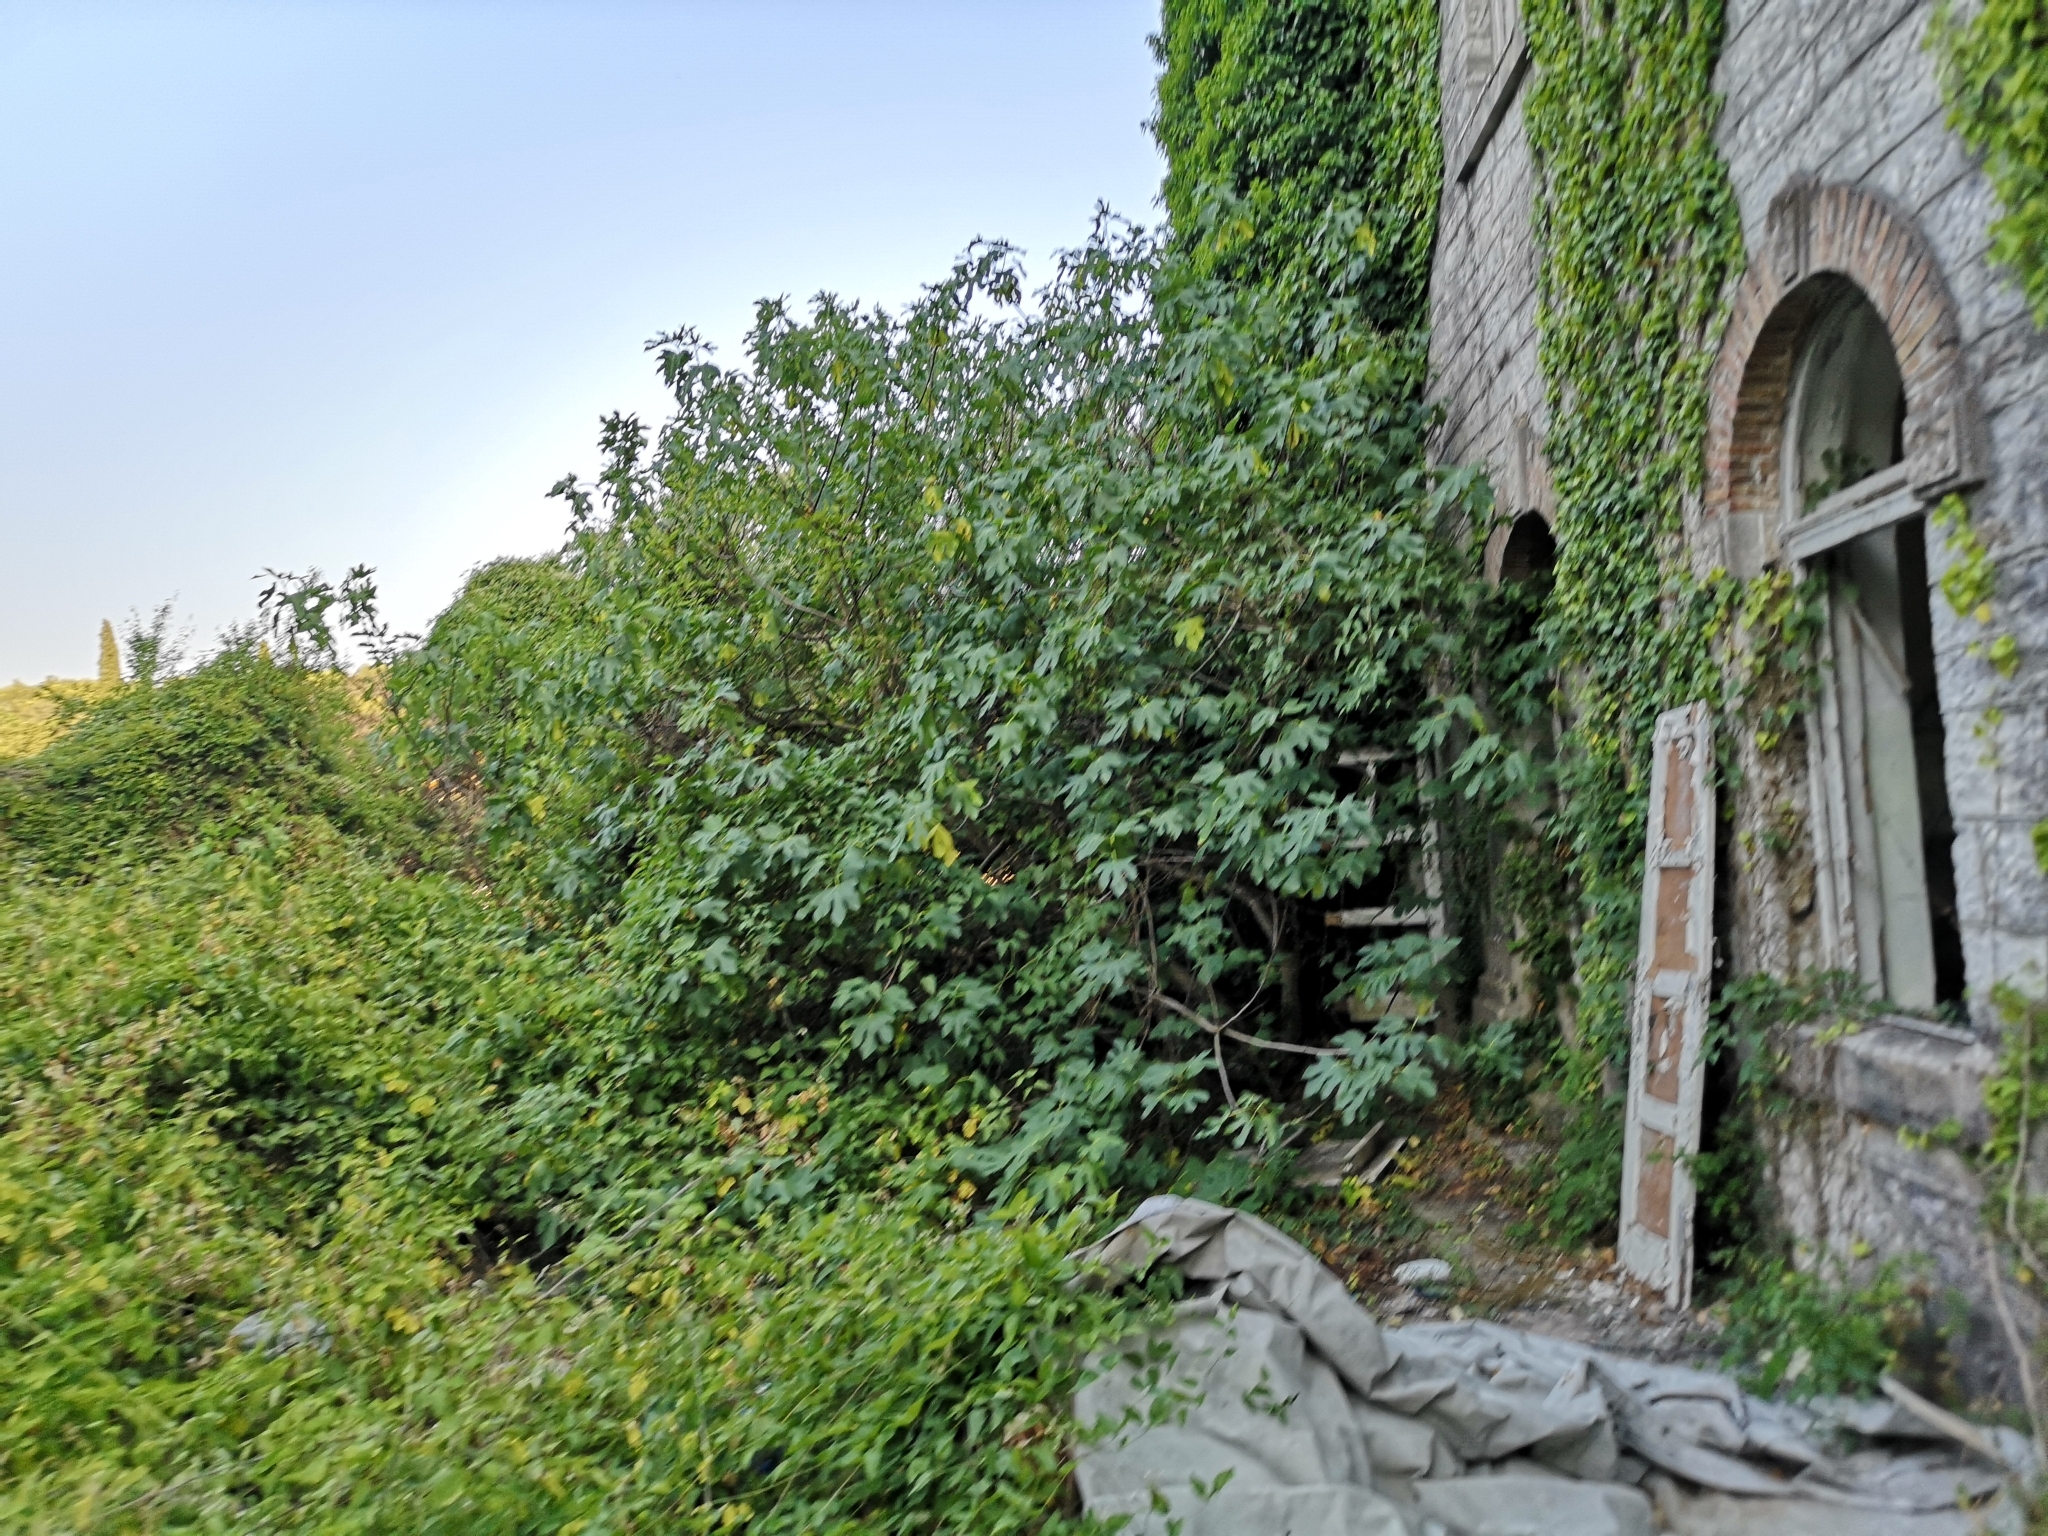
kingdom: Plantae
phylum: Tracheophyta
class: Magnoliopsida
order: Rosales
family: Moraceae
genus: Ficus
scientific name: Ficus carica
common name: Fig
